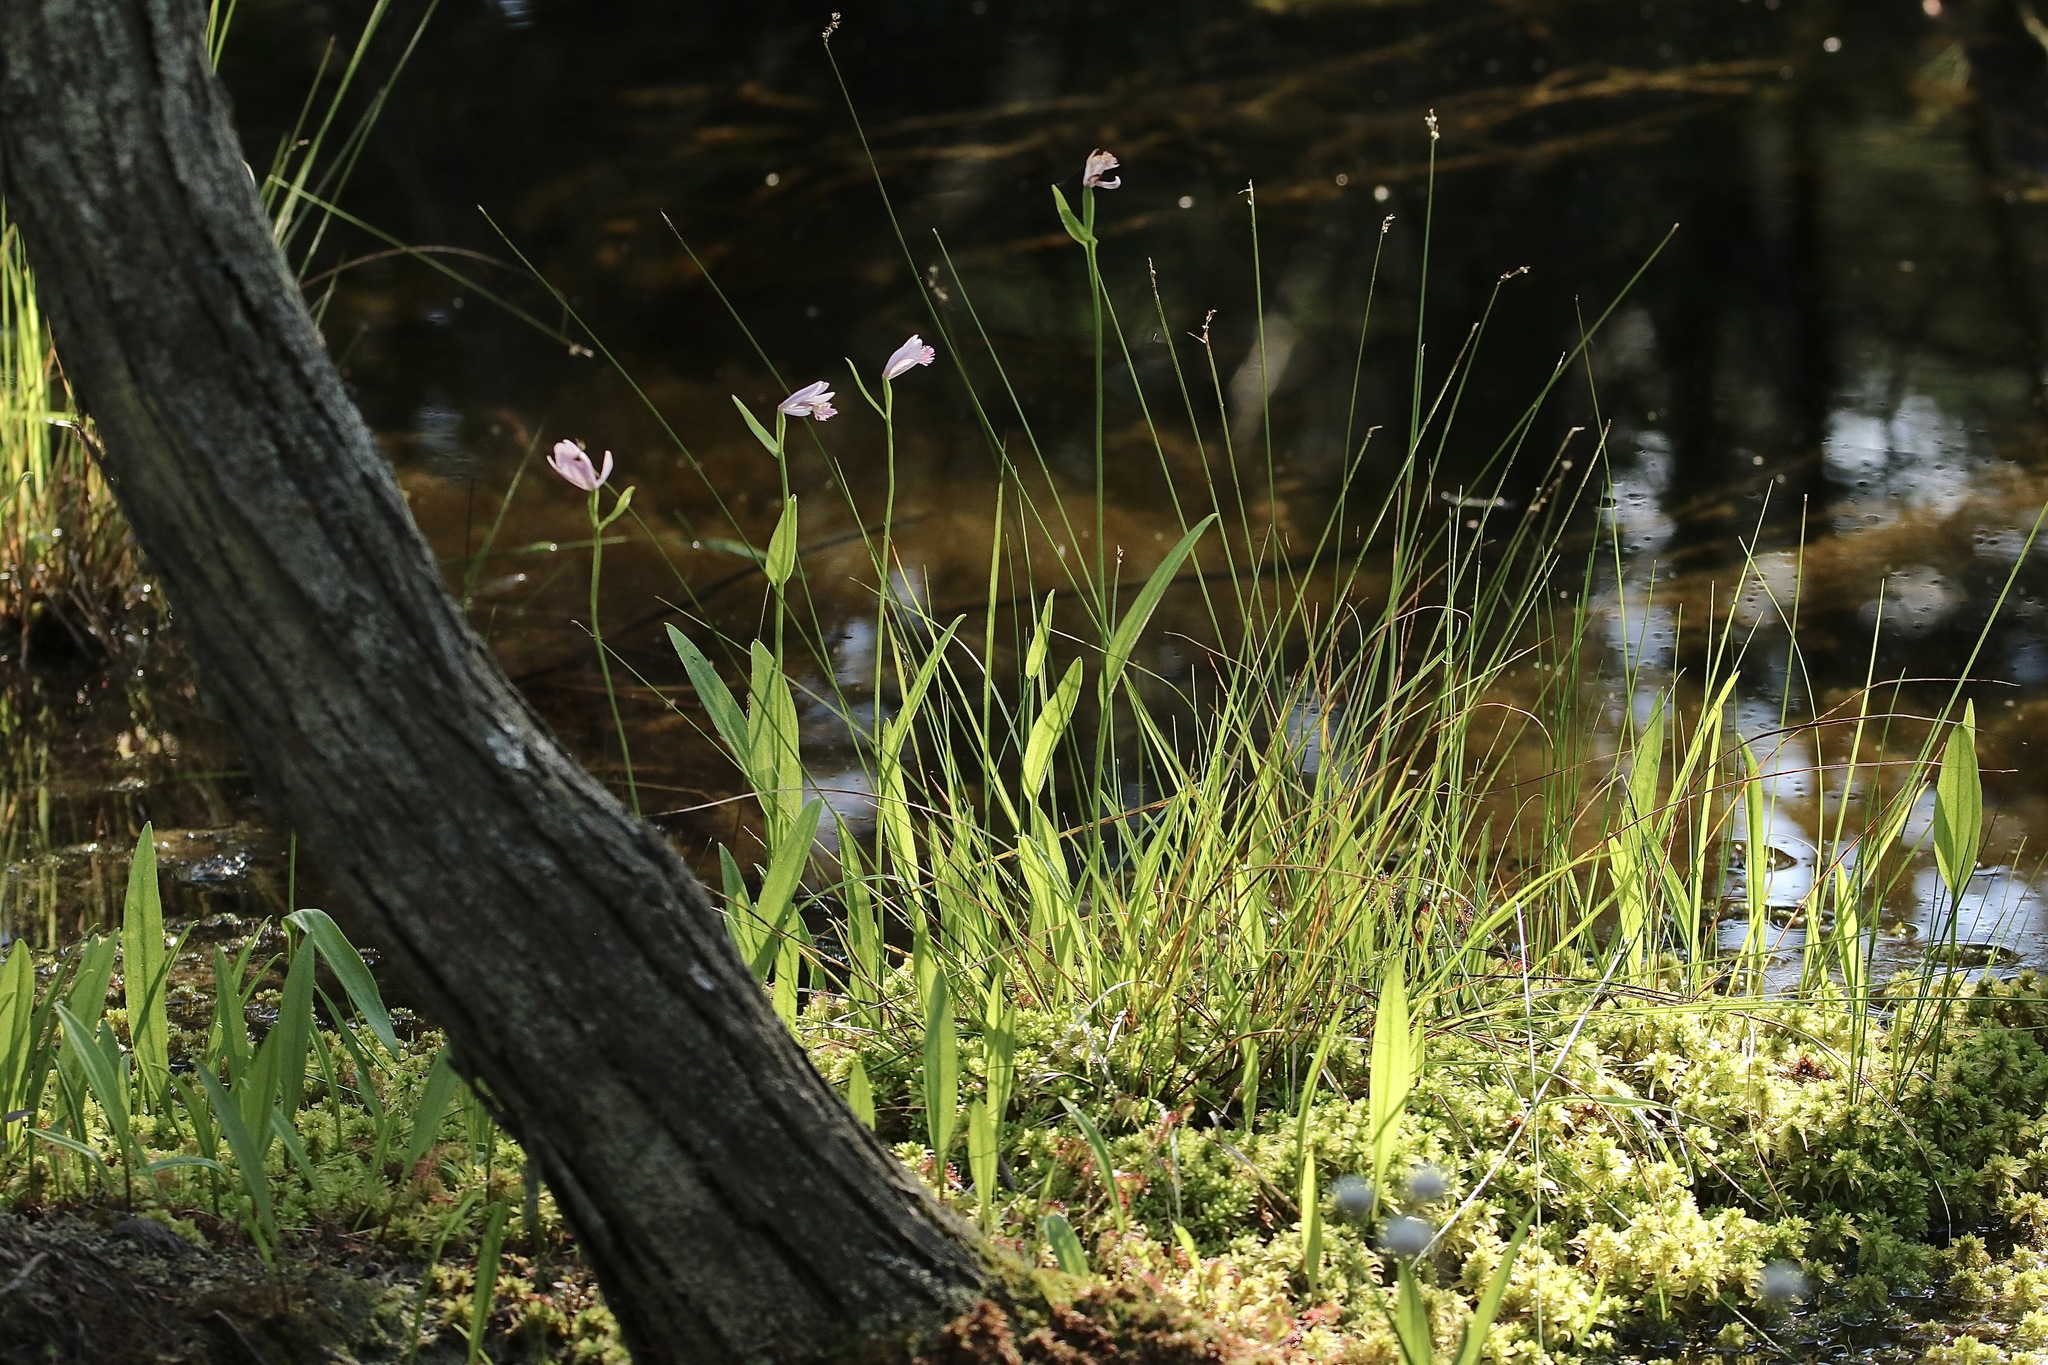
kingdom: Plantae
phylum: Tracheophyta
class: Liliopsida
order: Asparagales
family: Orchidaceae
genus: Pogonia
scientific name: Pogonia ophioglossoides
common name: Rose pogonia
